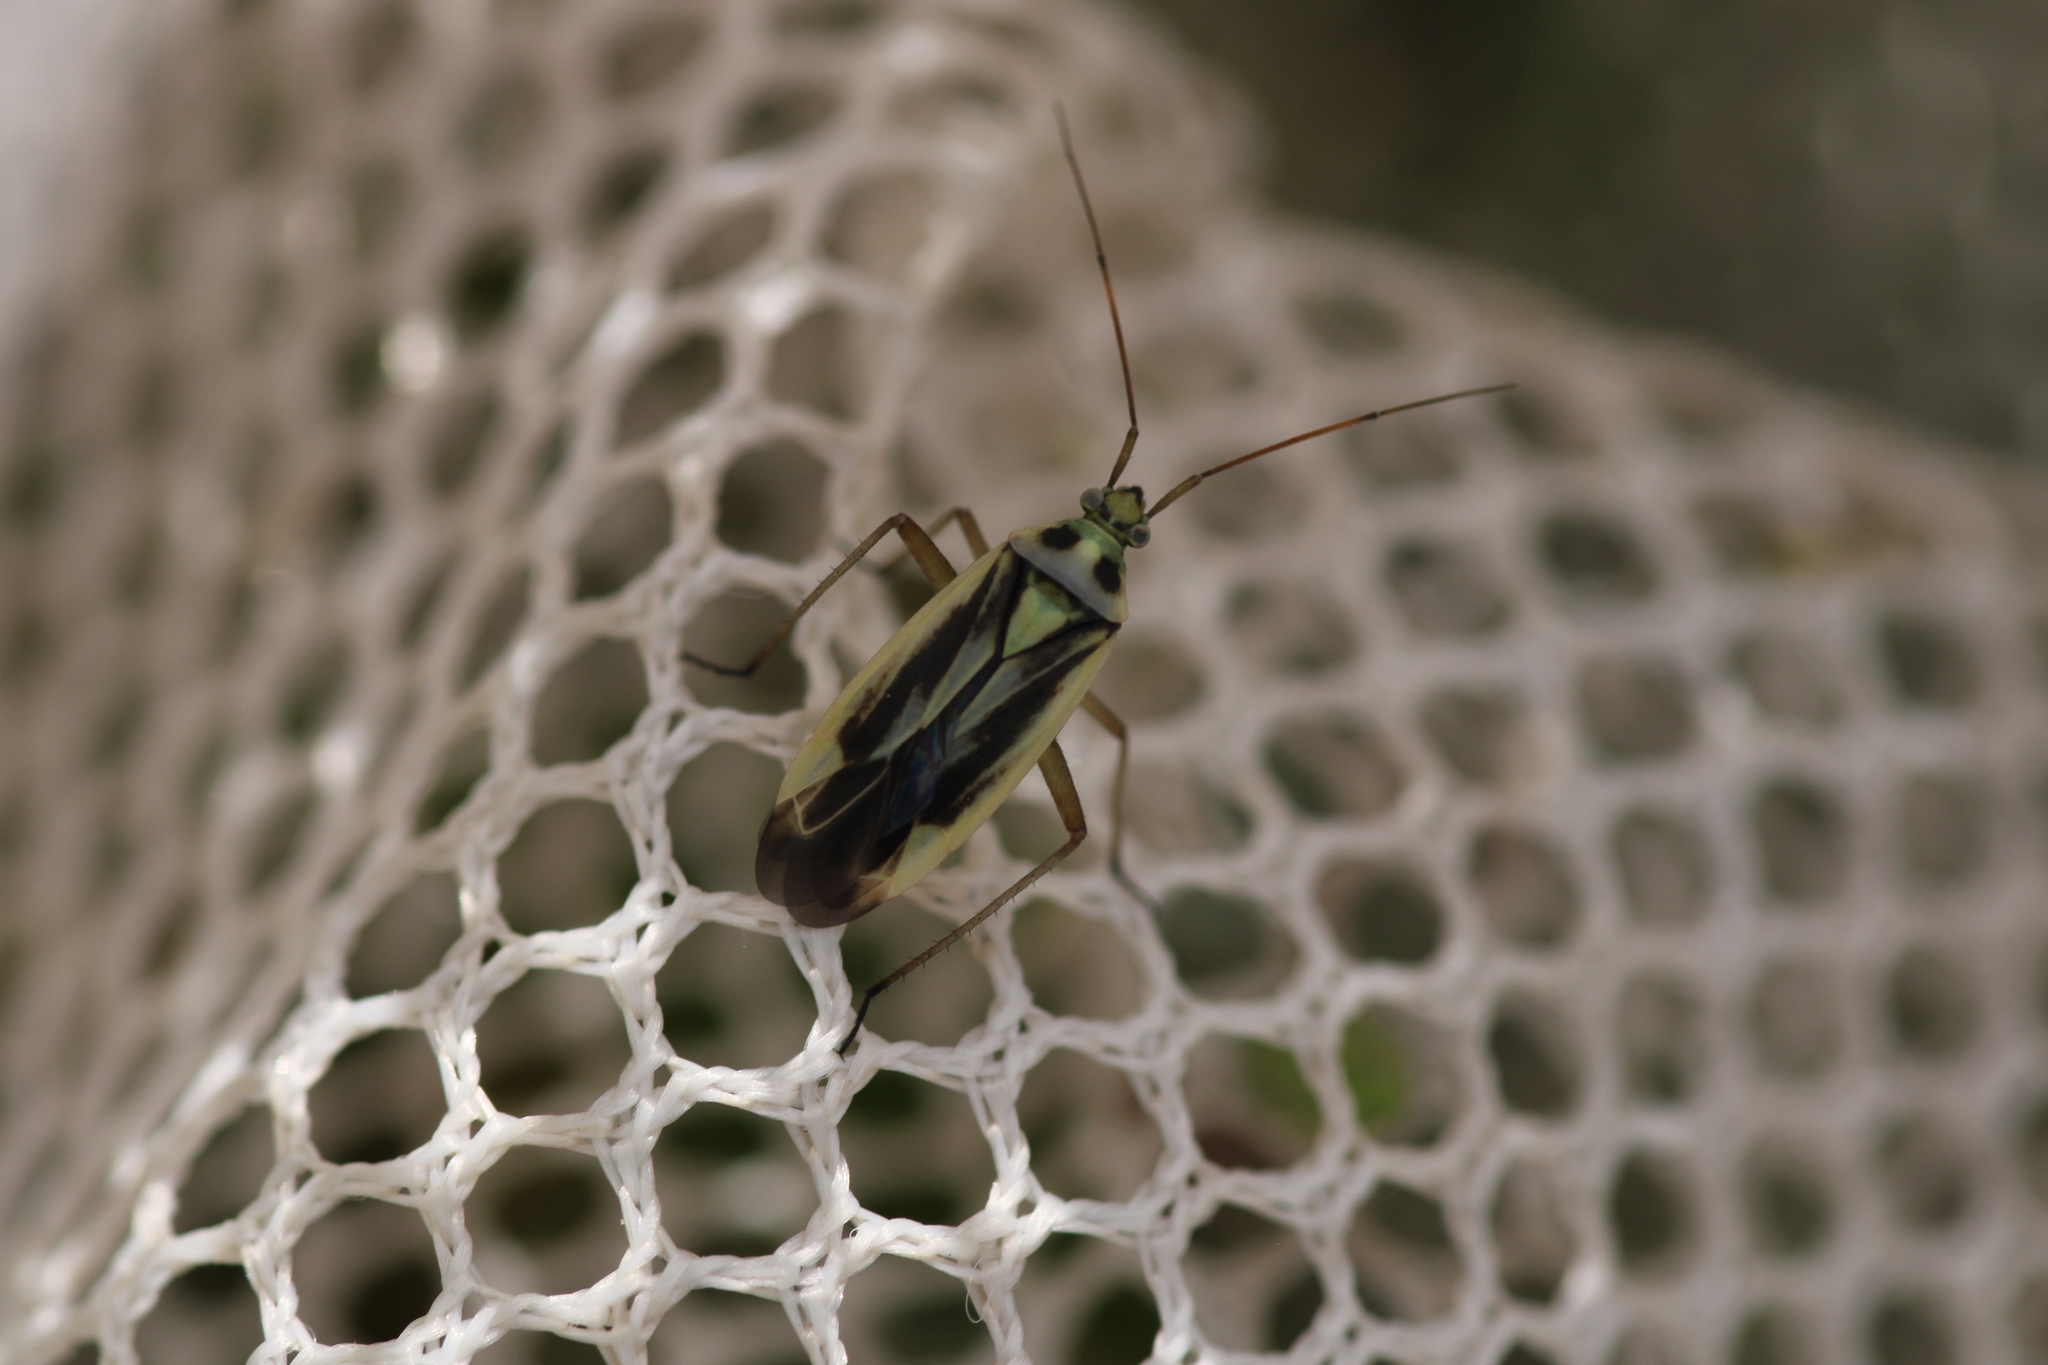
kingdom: Animalia
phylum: Arthropoda
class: Insecta
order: Hemiptera
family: Miridae
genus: Stenotus
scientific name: Stenotus binotatus
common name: Plant bug
